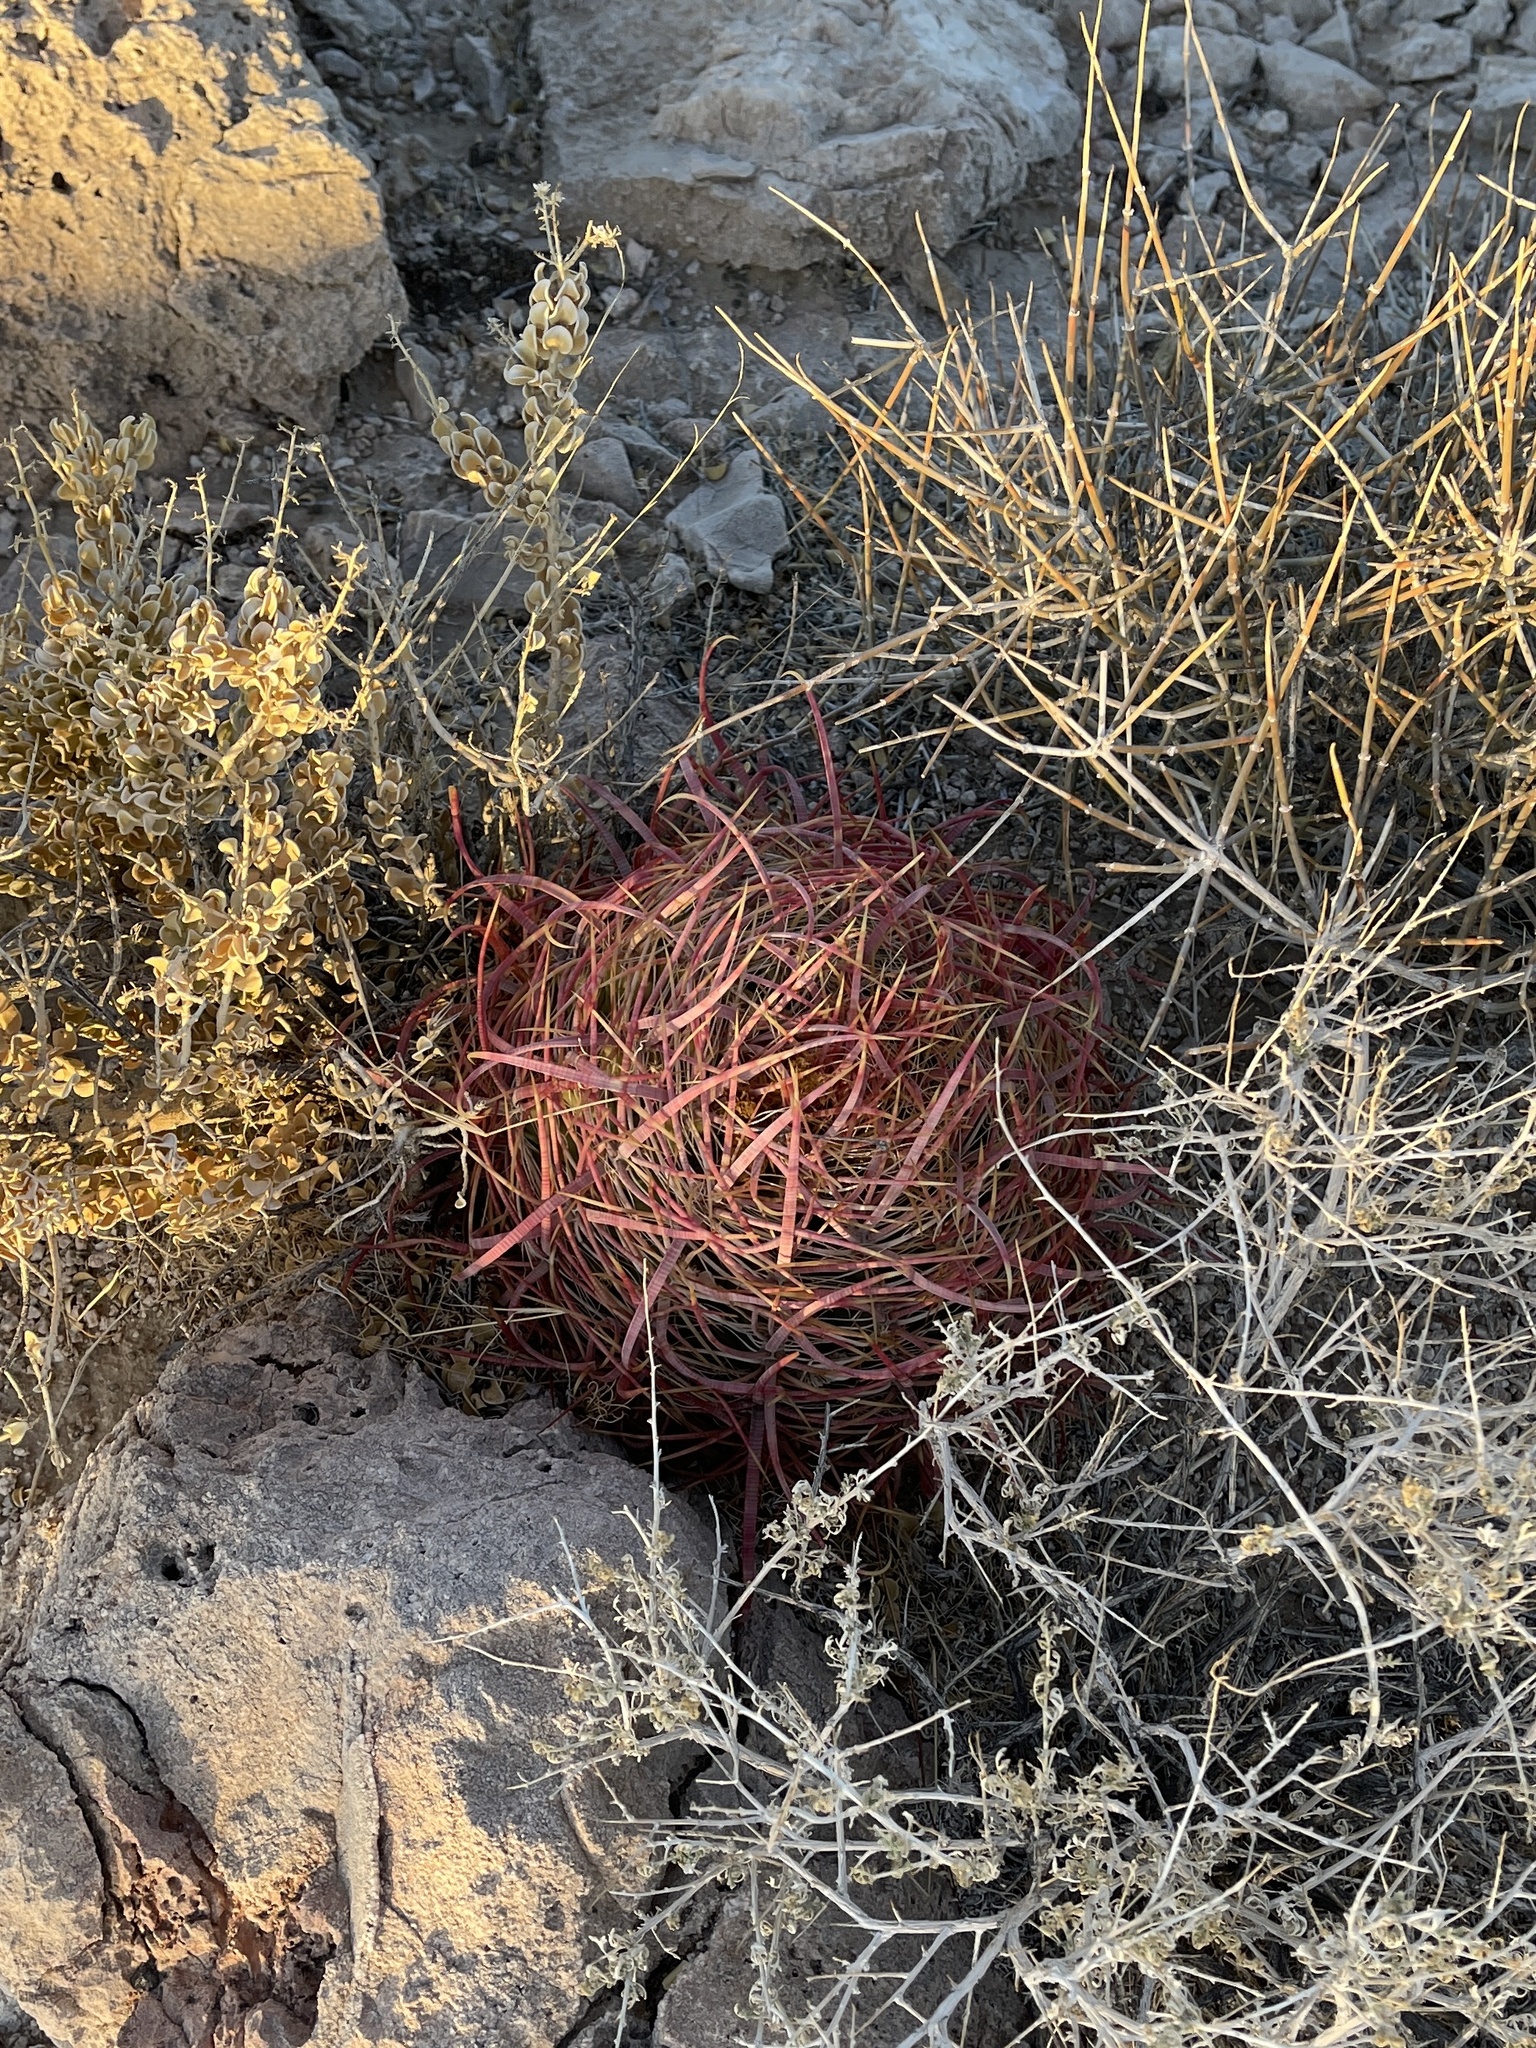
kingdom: Plantae
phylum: Tracheophyta
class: Magnoliopsida
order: Caryophyllales
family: Cactaceae
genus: Ferocactus
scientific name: Ferocactus cylindraceus
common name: California barrel cactus
